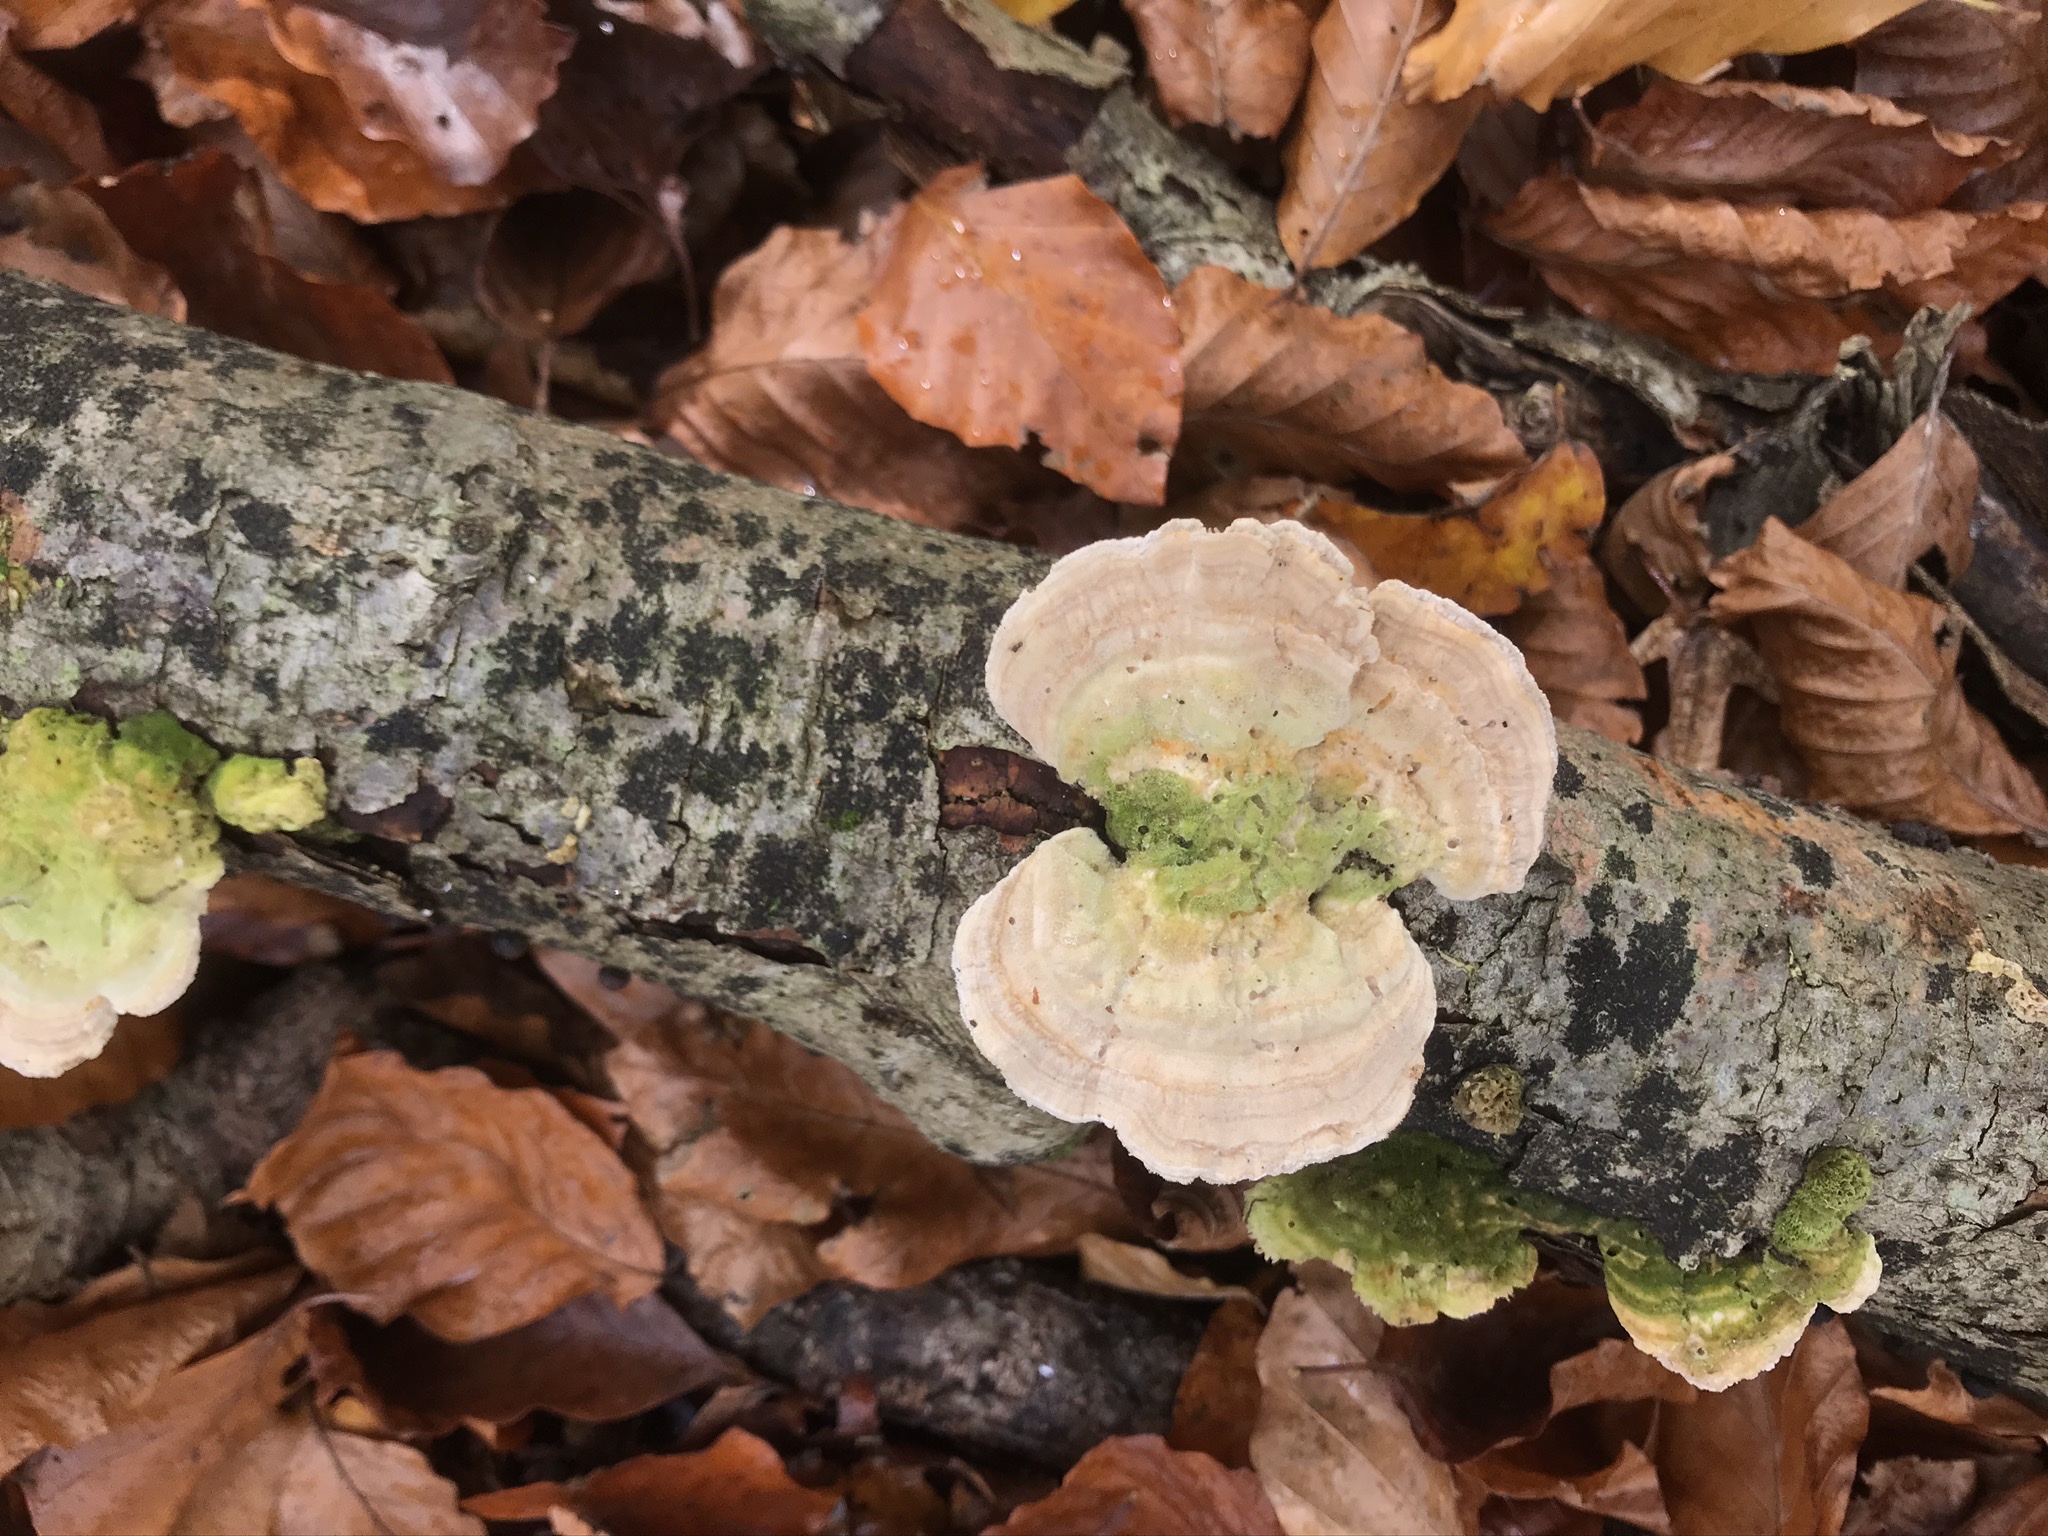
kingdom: Fungi
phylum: Basidiomycota
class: Agaricomycetes
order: Polyporales
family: Polyporaceae
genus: Lenzites
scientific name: Lenzites betulinus
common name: Birch mazegill
